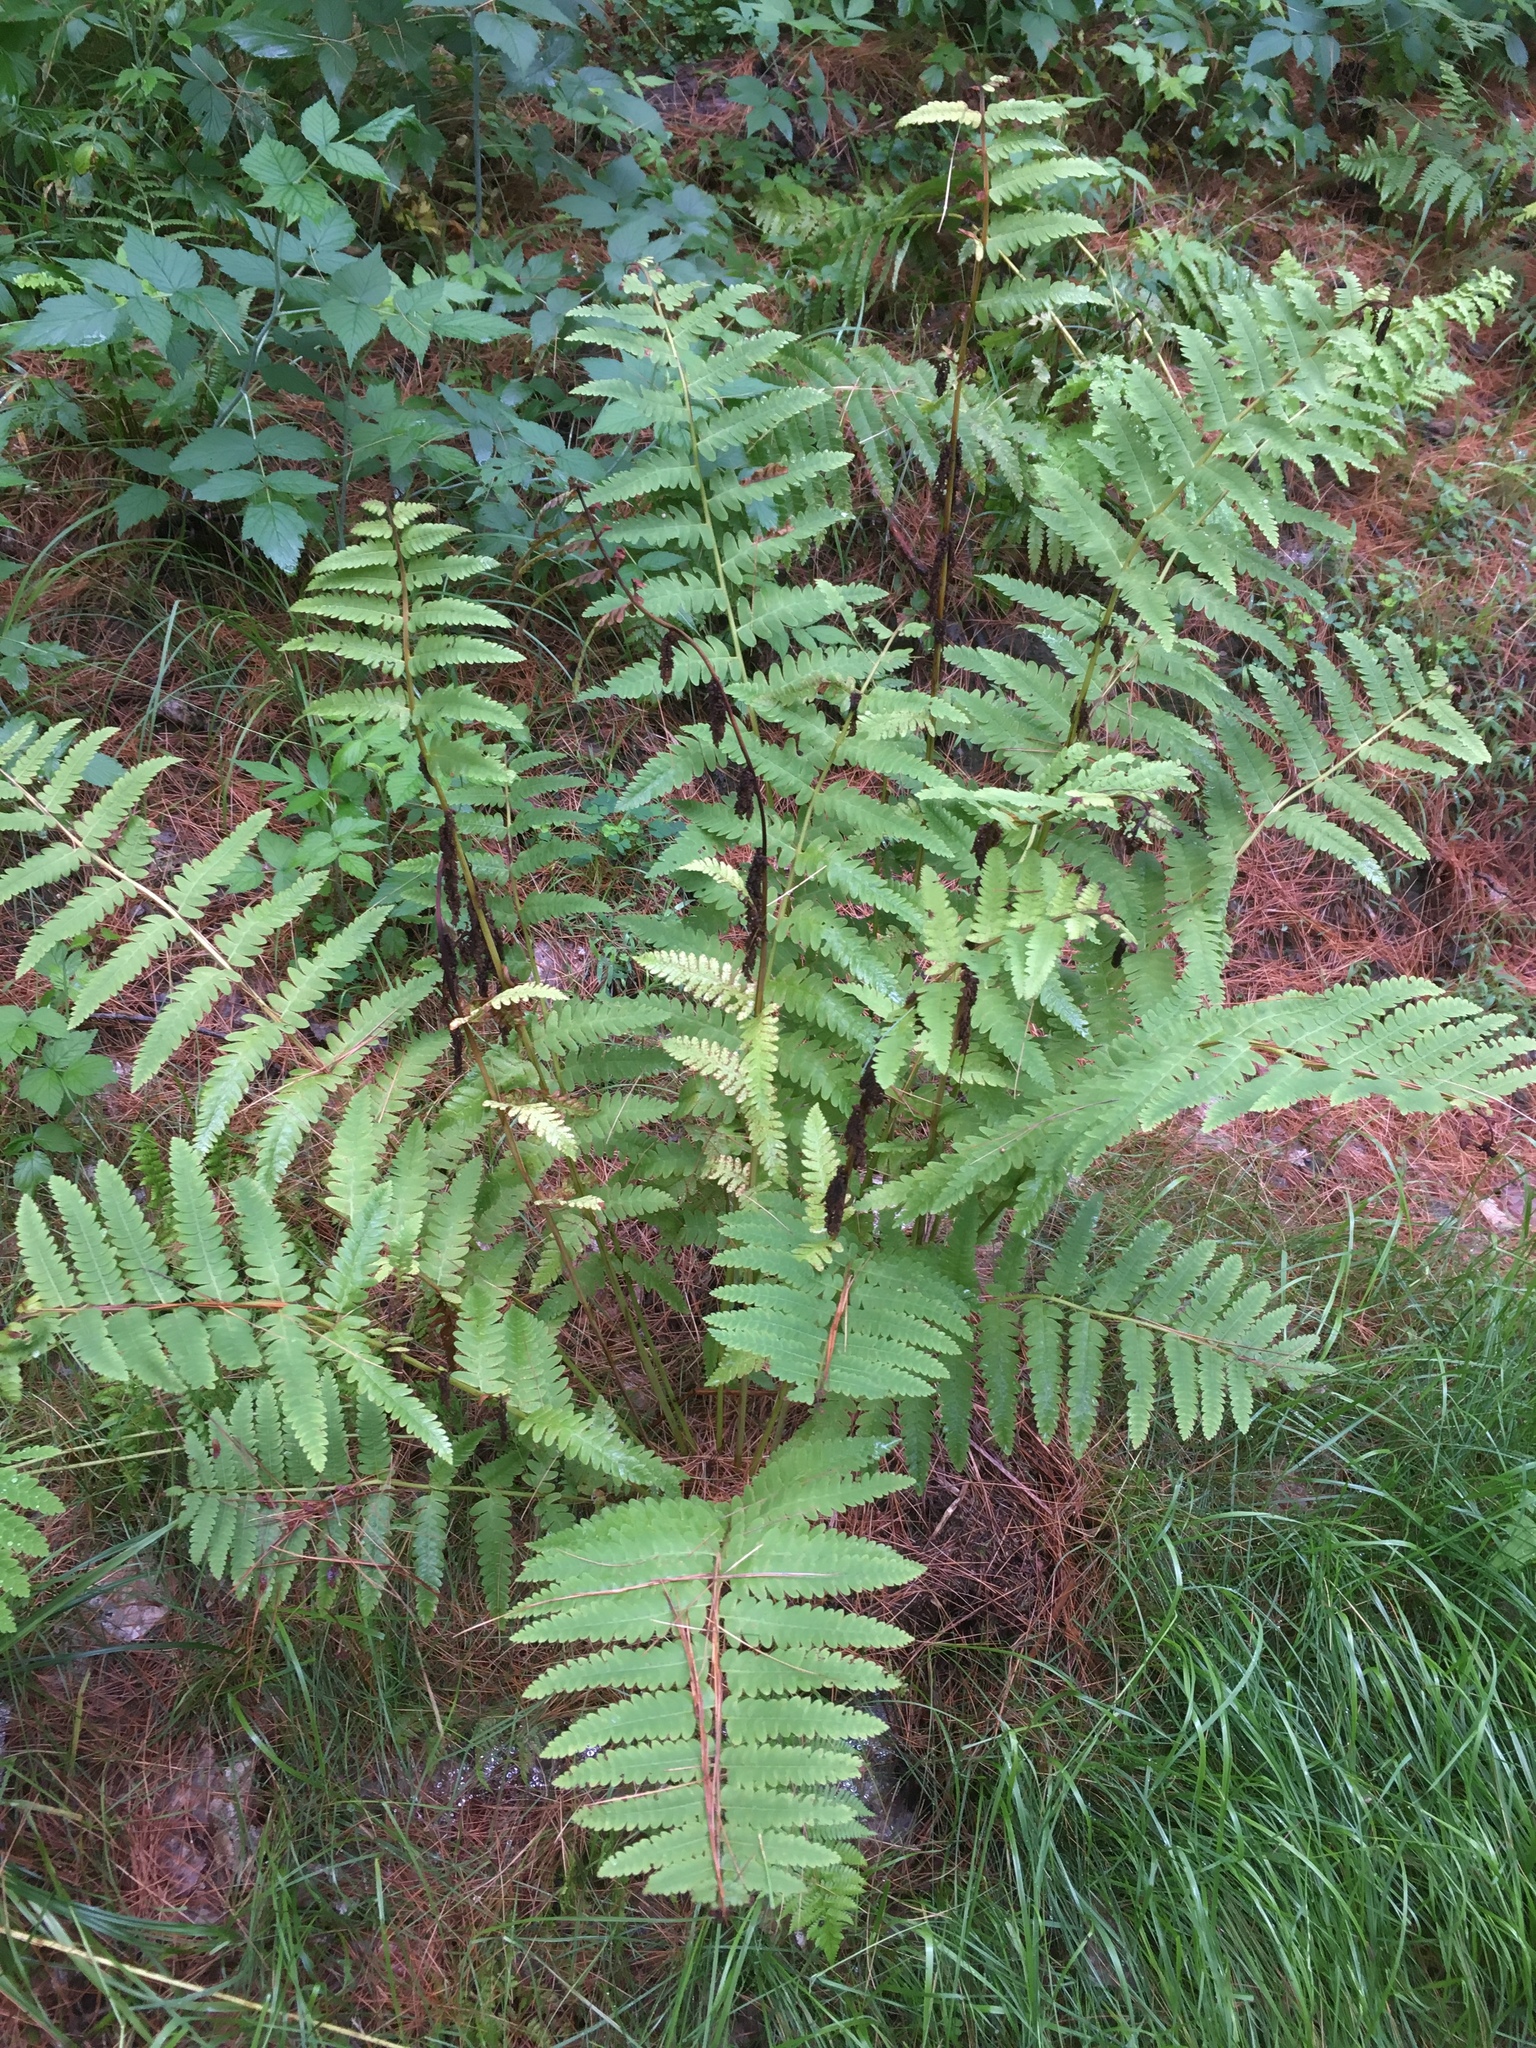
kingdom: Plantae
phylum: Tracheophyta
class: Polypodiopsida
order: Osmundales
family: Osmundaceae
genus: Claytosmunda
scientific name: Claytosmunda claytoniana
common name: Clayton's fern
